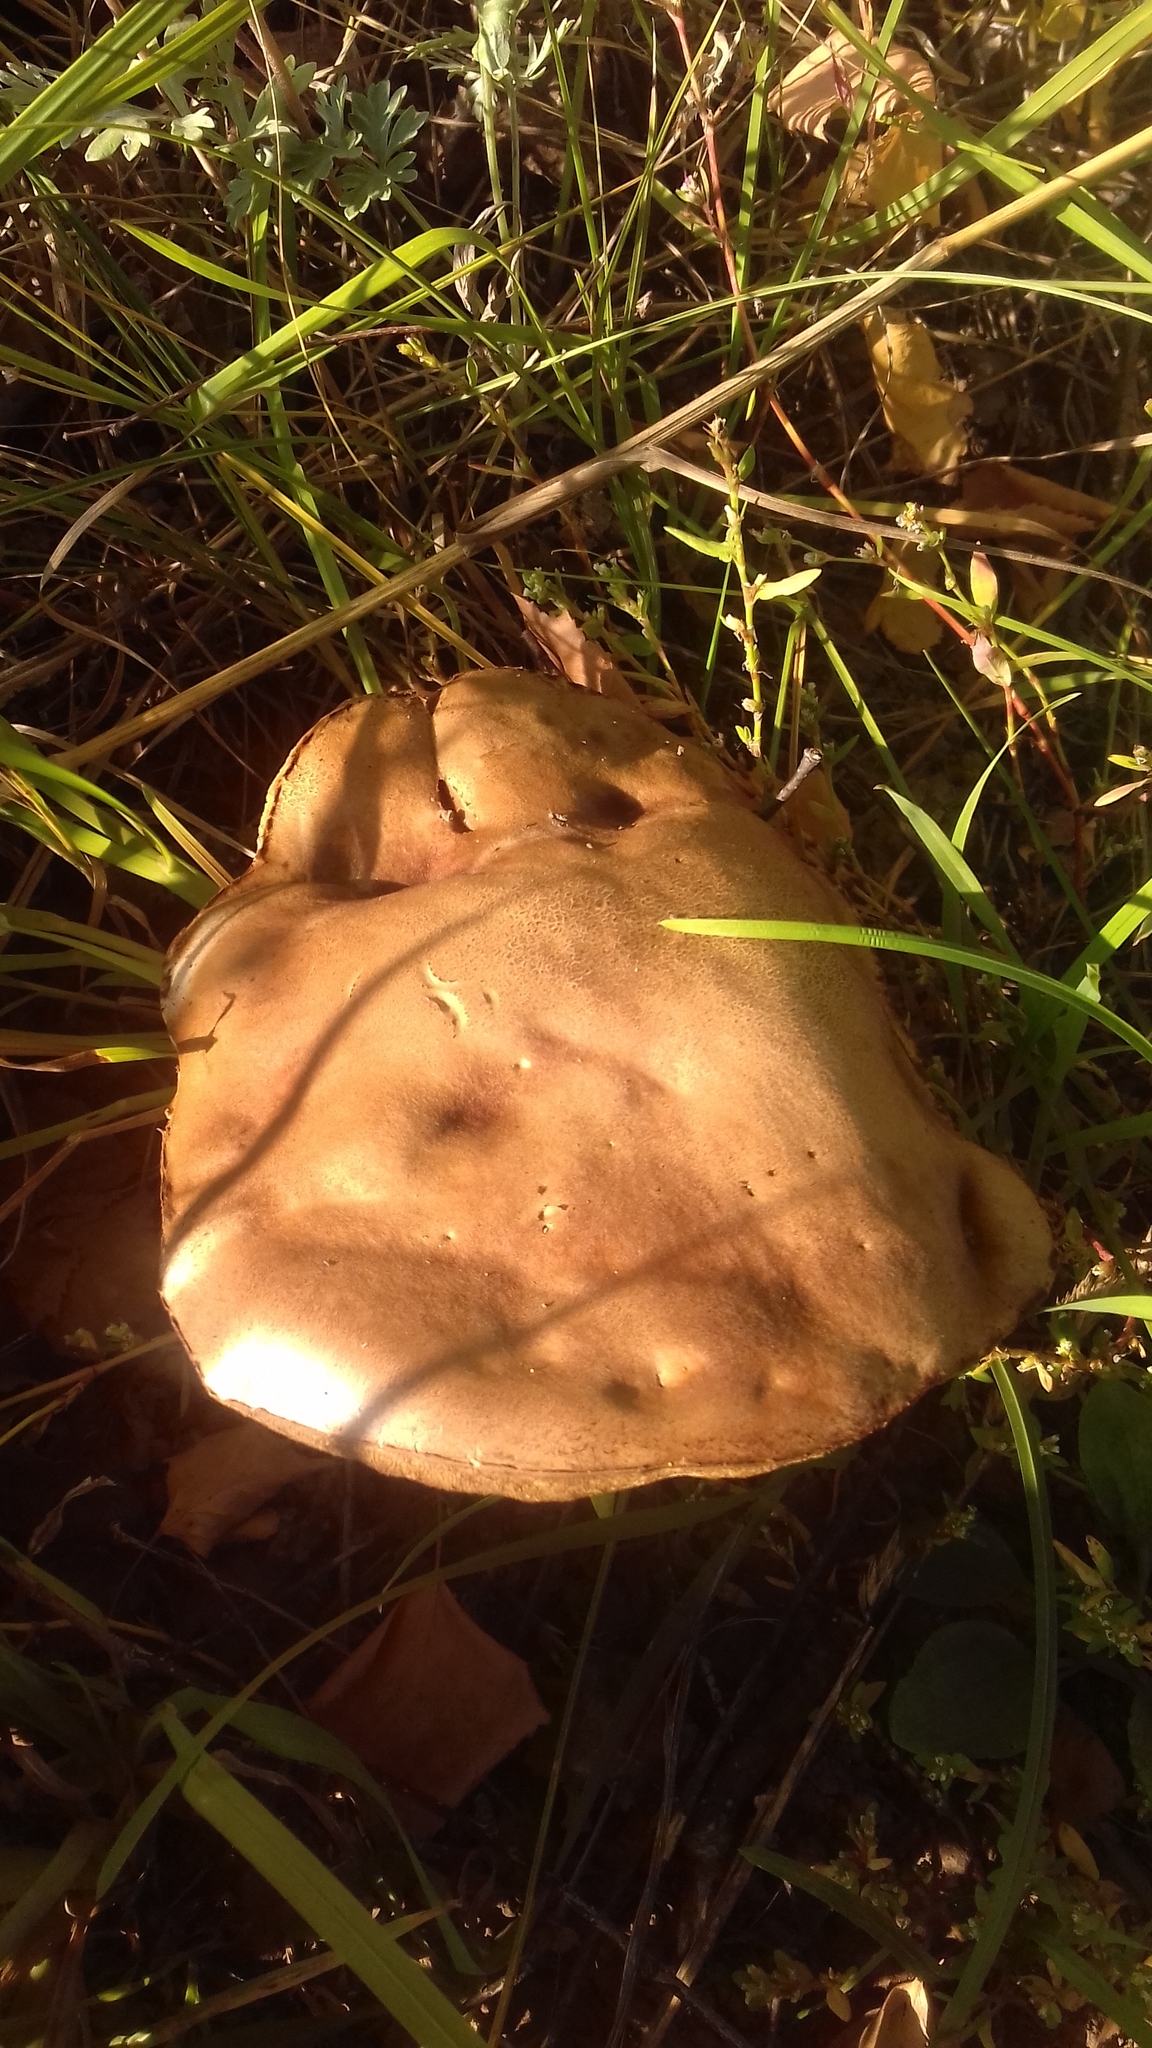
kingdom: Fungi
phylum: Basidiomycota
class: Agaricomycetes
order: Boletales
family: Boletaceae
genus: Leccinum
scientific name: Leccinum scabrum
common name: Blushing bolete
